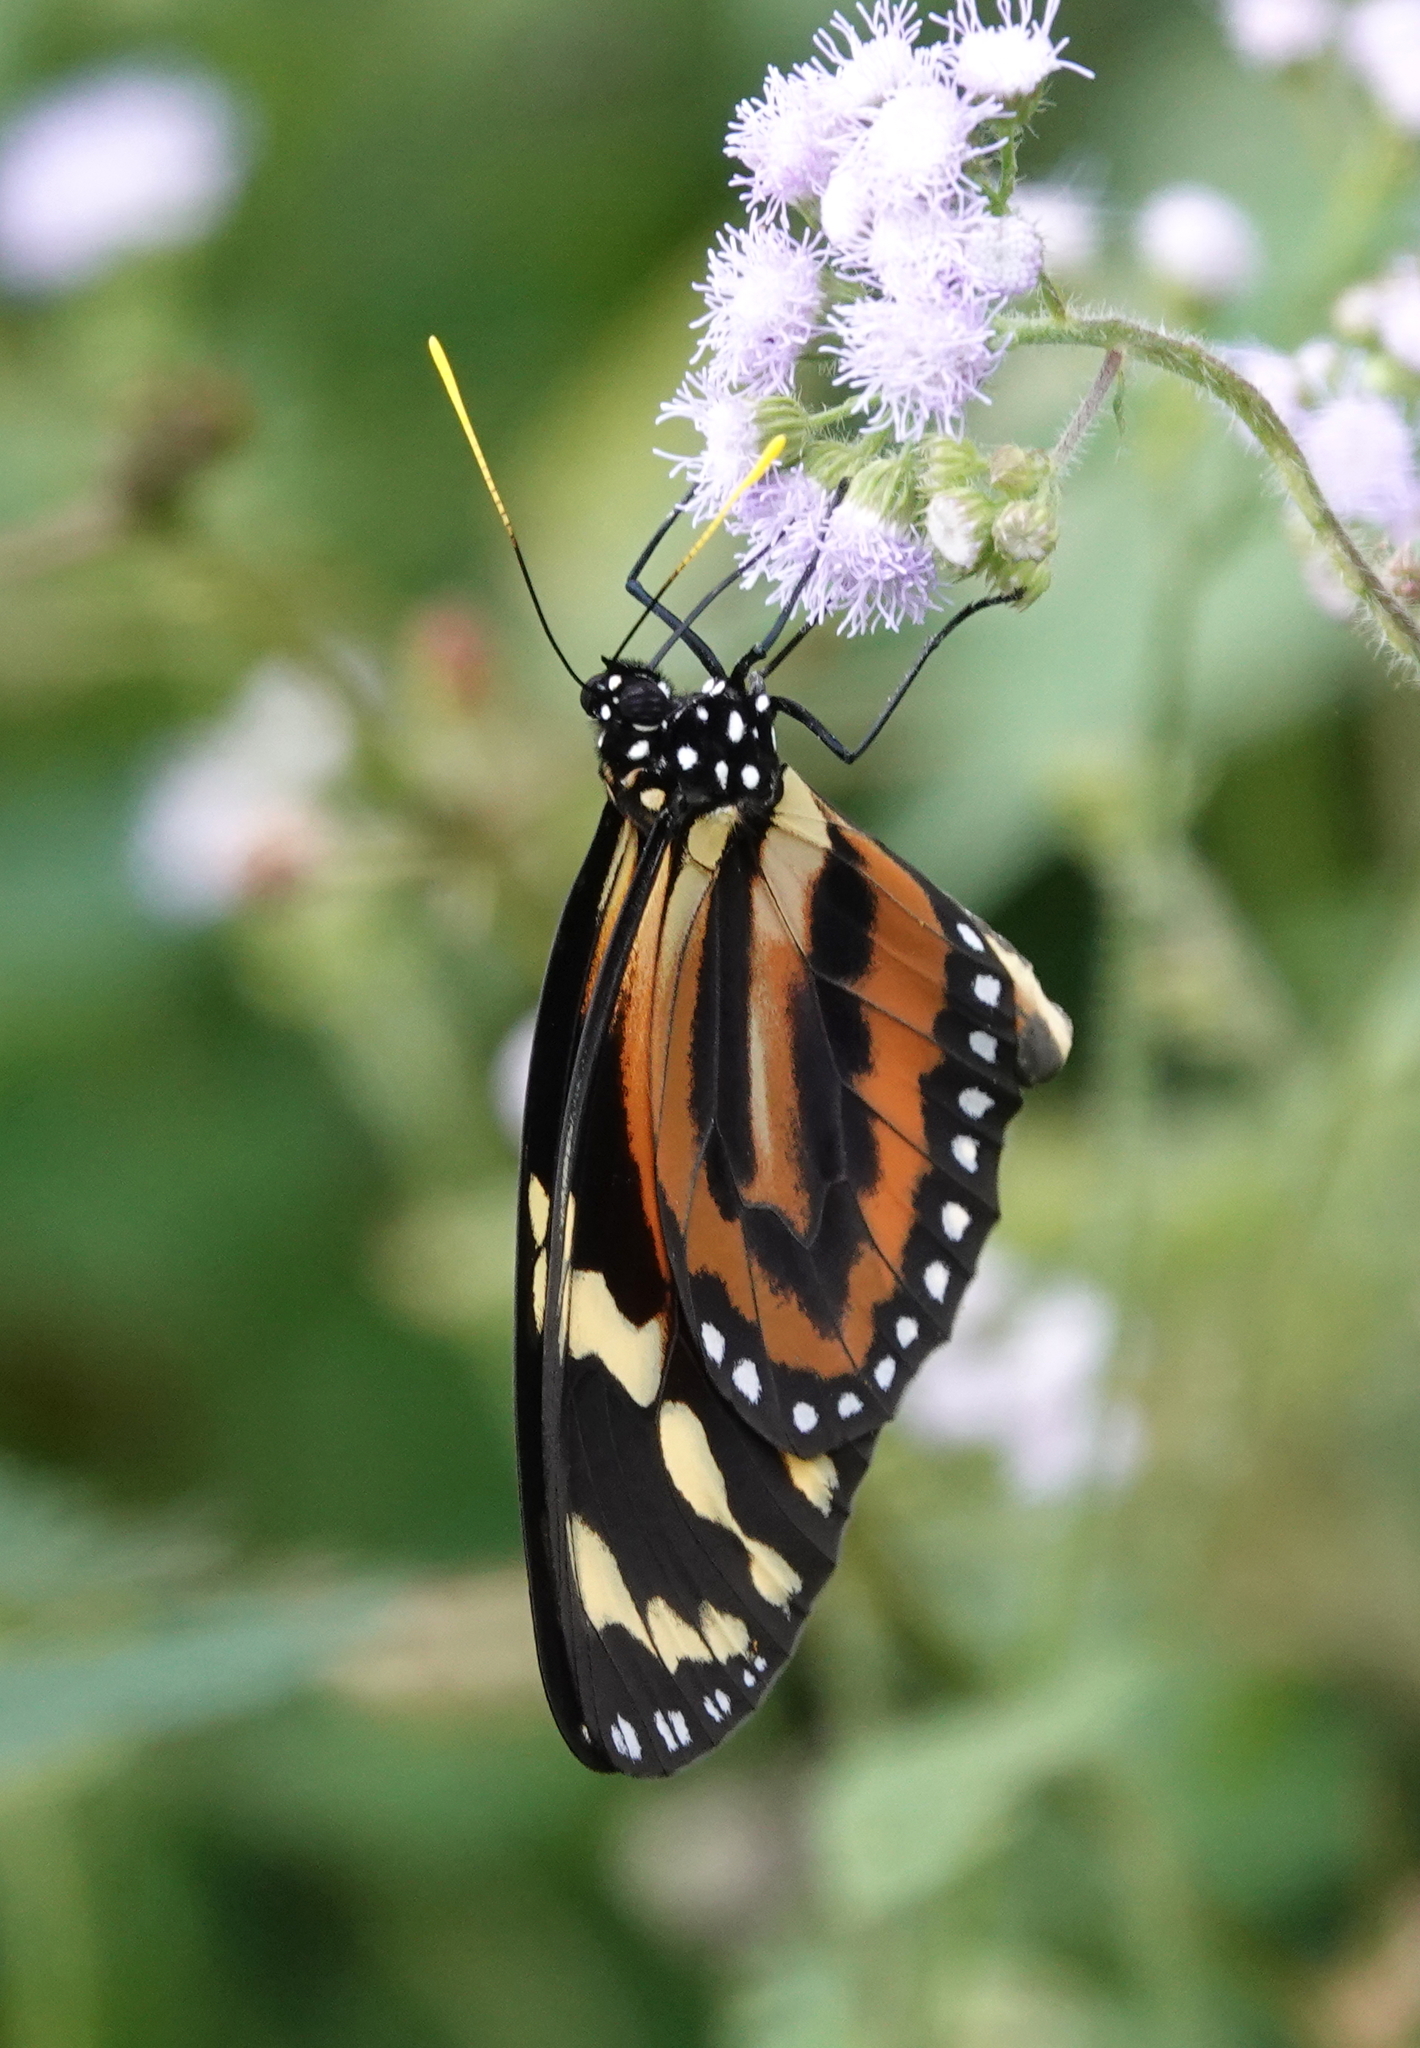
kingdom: Animalia
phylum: Arthropoda
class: Insecta
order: Lepidoptera
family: Nymphalidae
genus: Lycorea
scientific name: Lycorea cleobaea
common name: Tiger mimic-queen
